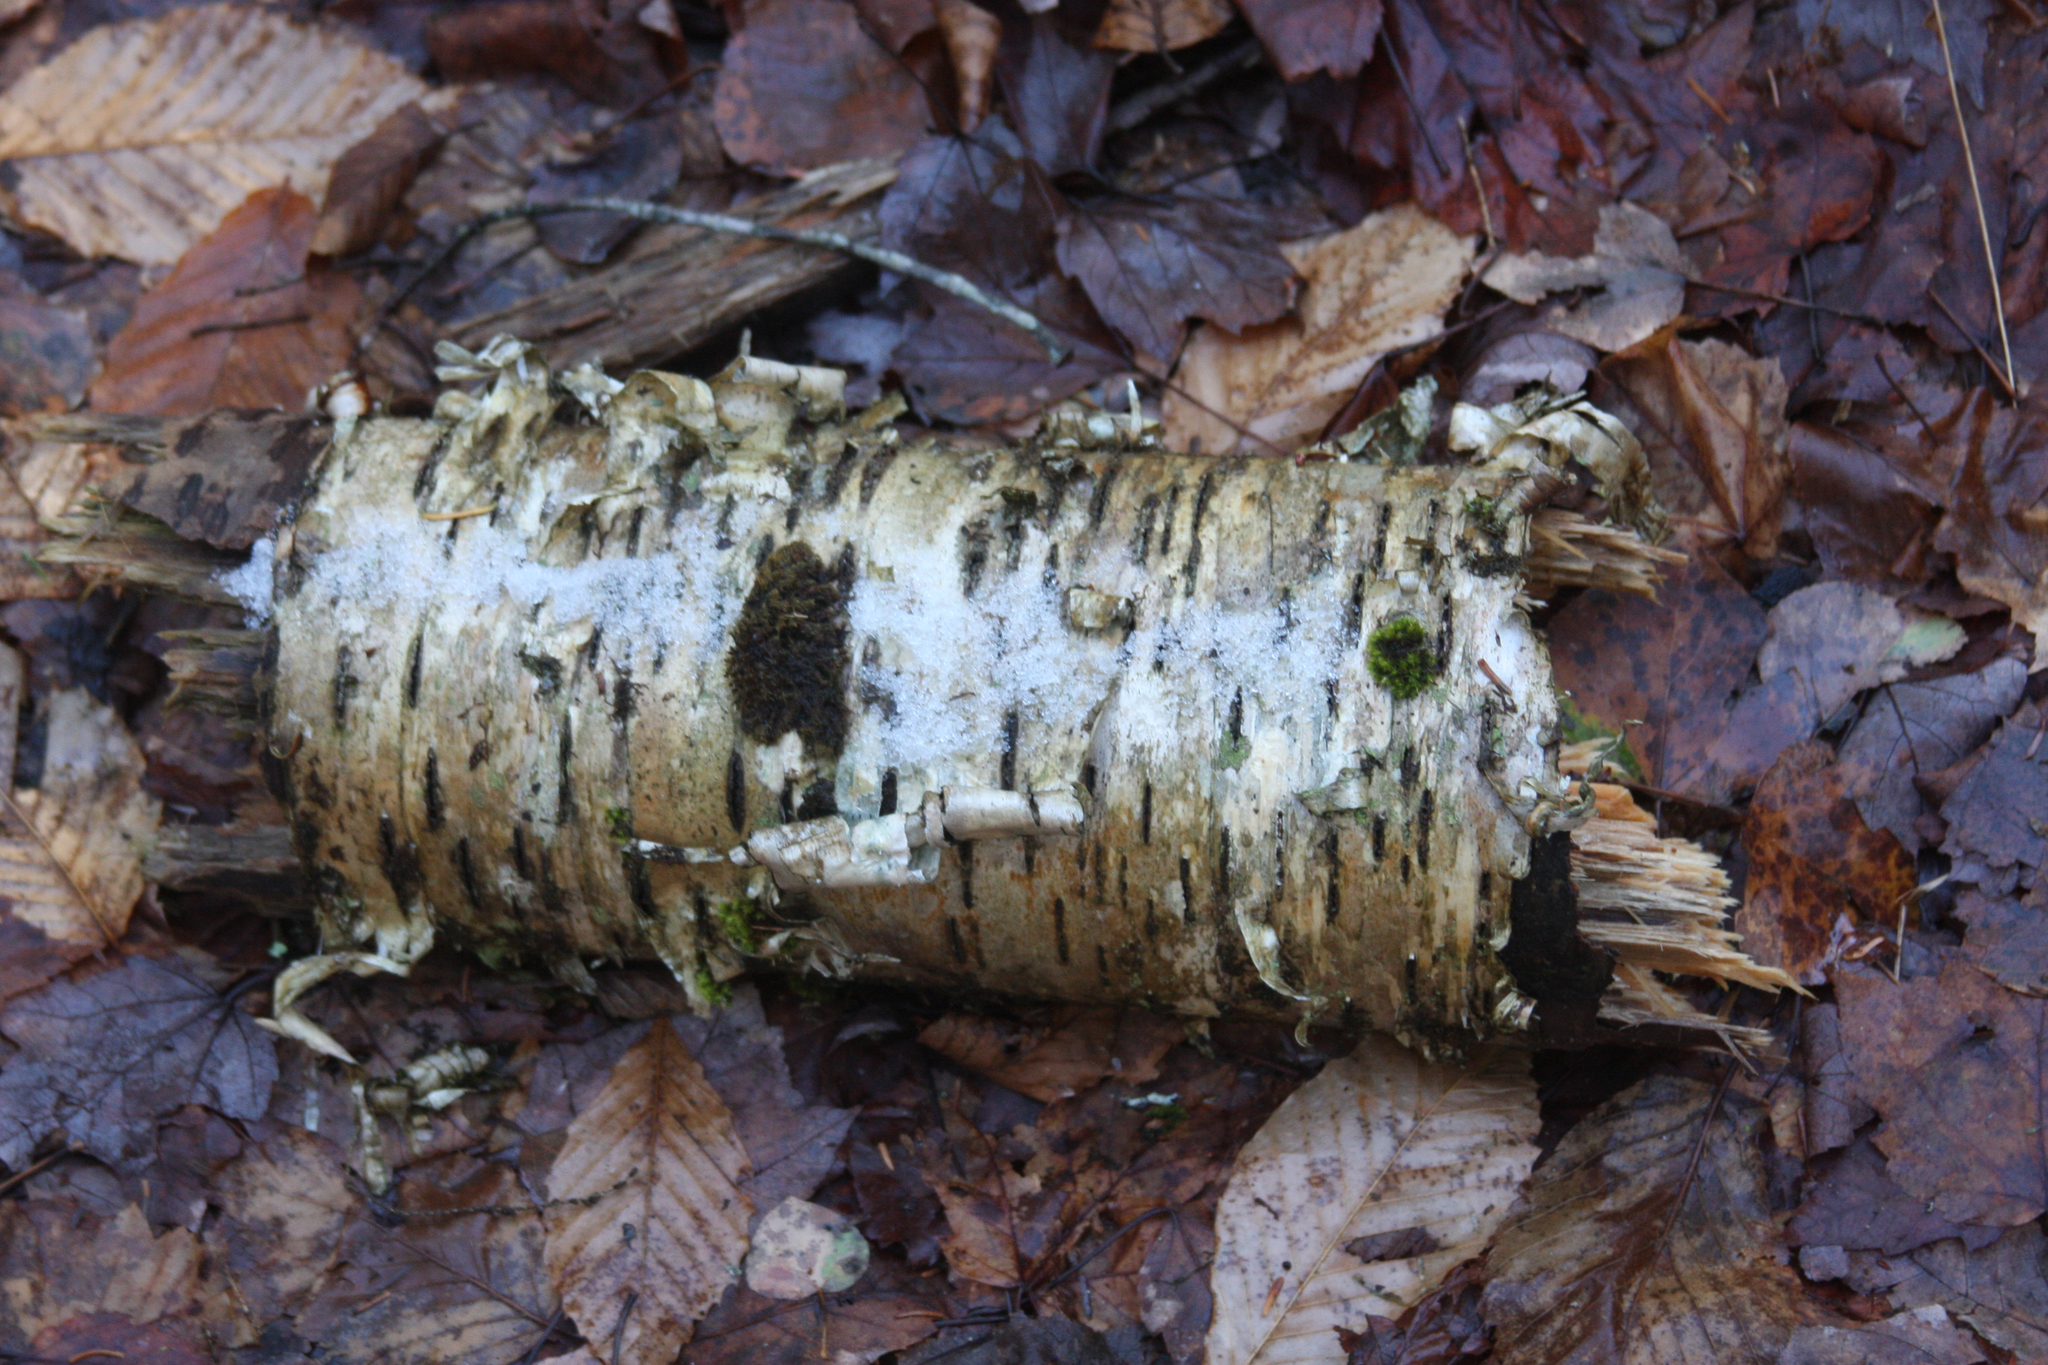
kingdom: Plantae
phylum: Bryophyta
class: Bryopsida
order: Orthotrichales
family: Orthotrichaceae
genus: Ulota
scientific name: Ulota crispa
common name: Crisped pincushion moss
